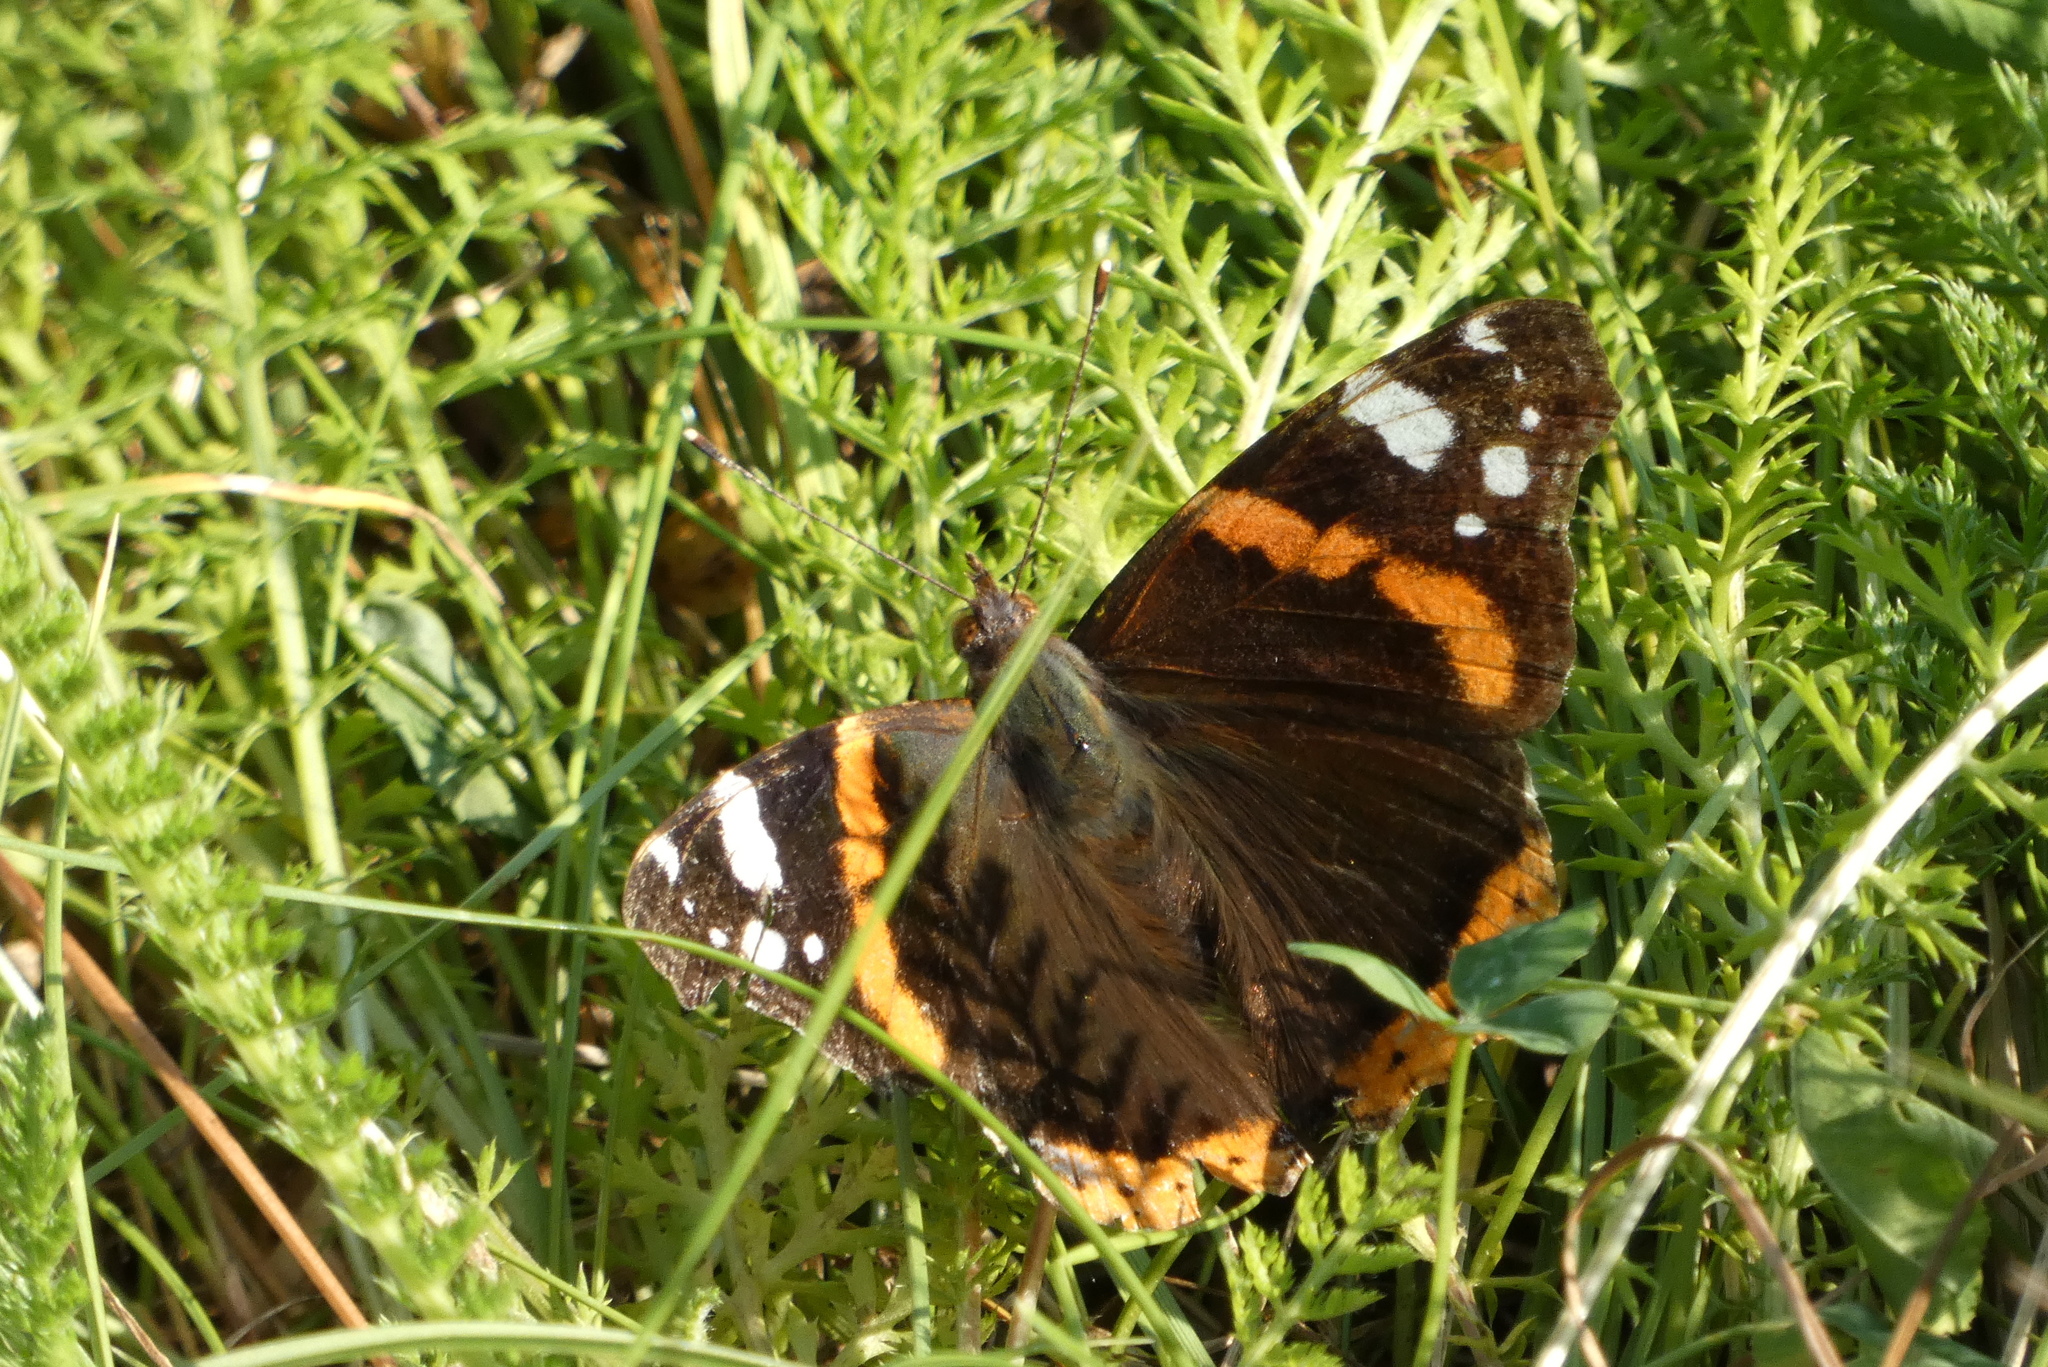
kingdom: Animalia
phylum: Arthropoda
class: Insecta
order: Lepidoptera
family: Nymphalidae
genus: Vanessa
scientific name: Vanessa atalanta
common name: Red admiral
